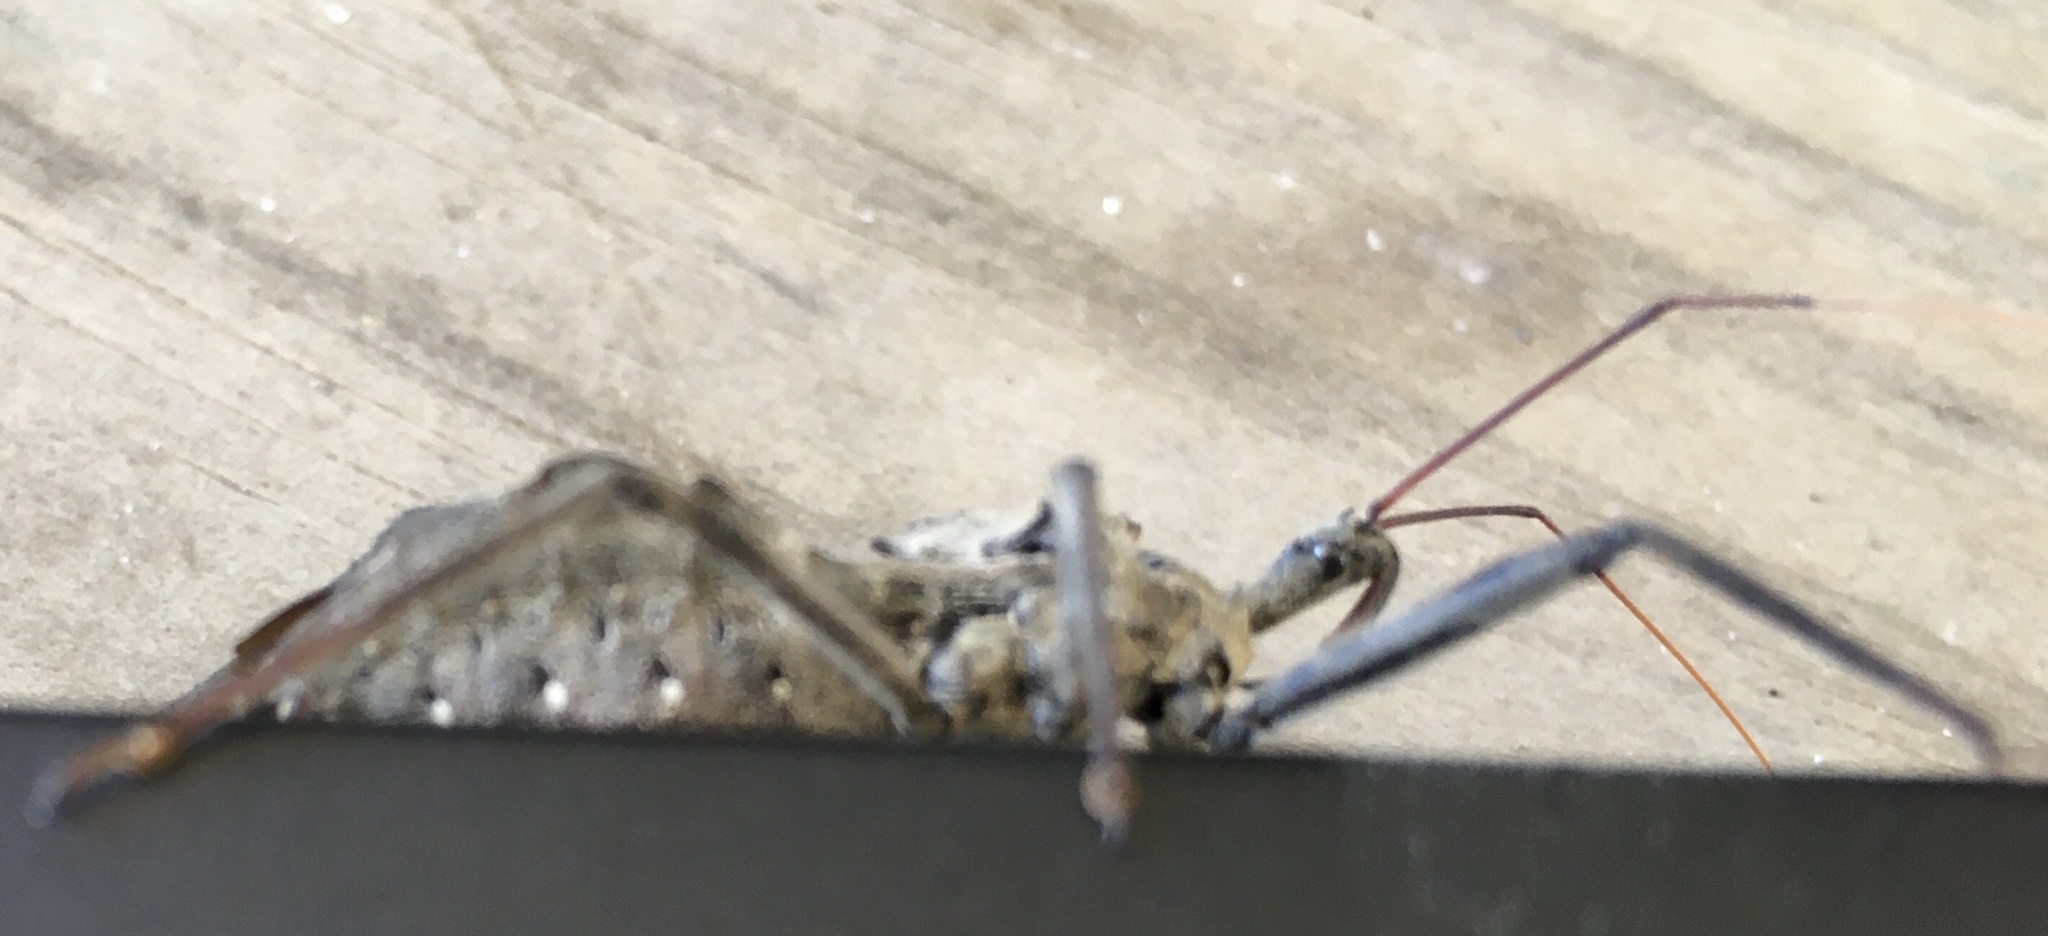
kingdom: Animalia
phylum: Arthropoda
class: Insecta
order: Hemiptera
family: Reduviidae
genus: Arilus
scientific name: Arilus cristatus
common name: North american wheel bug
